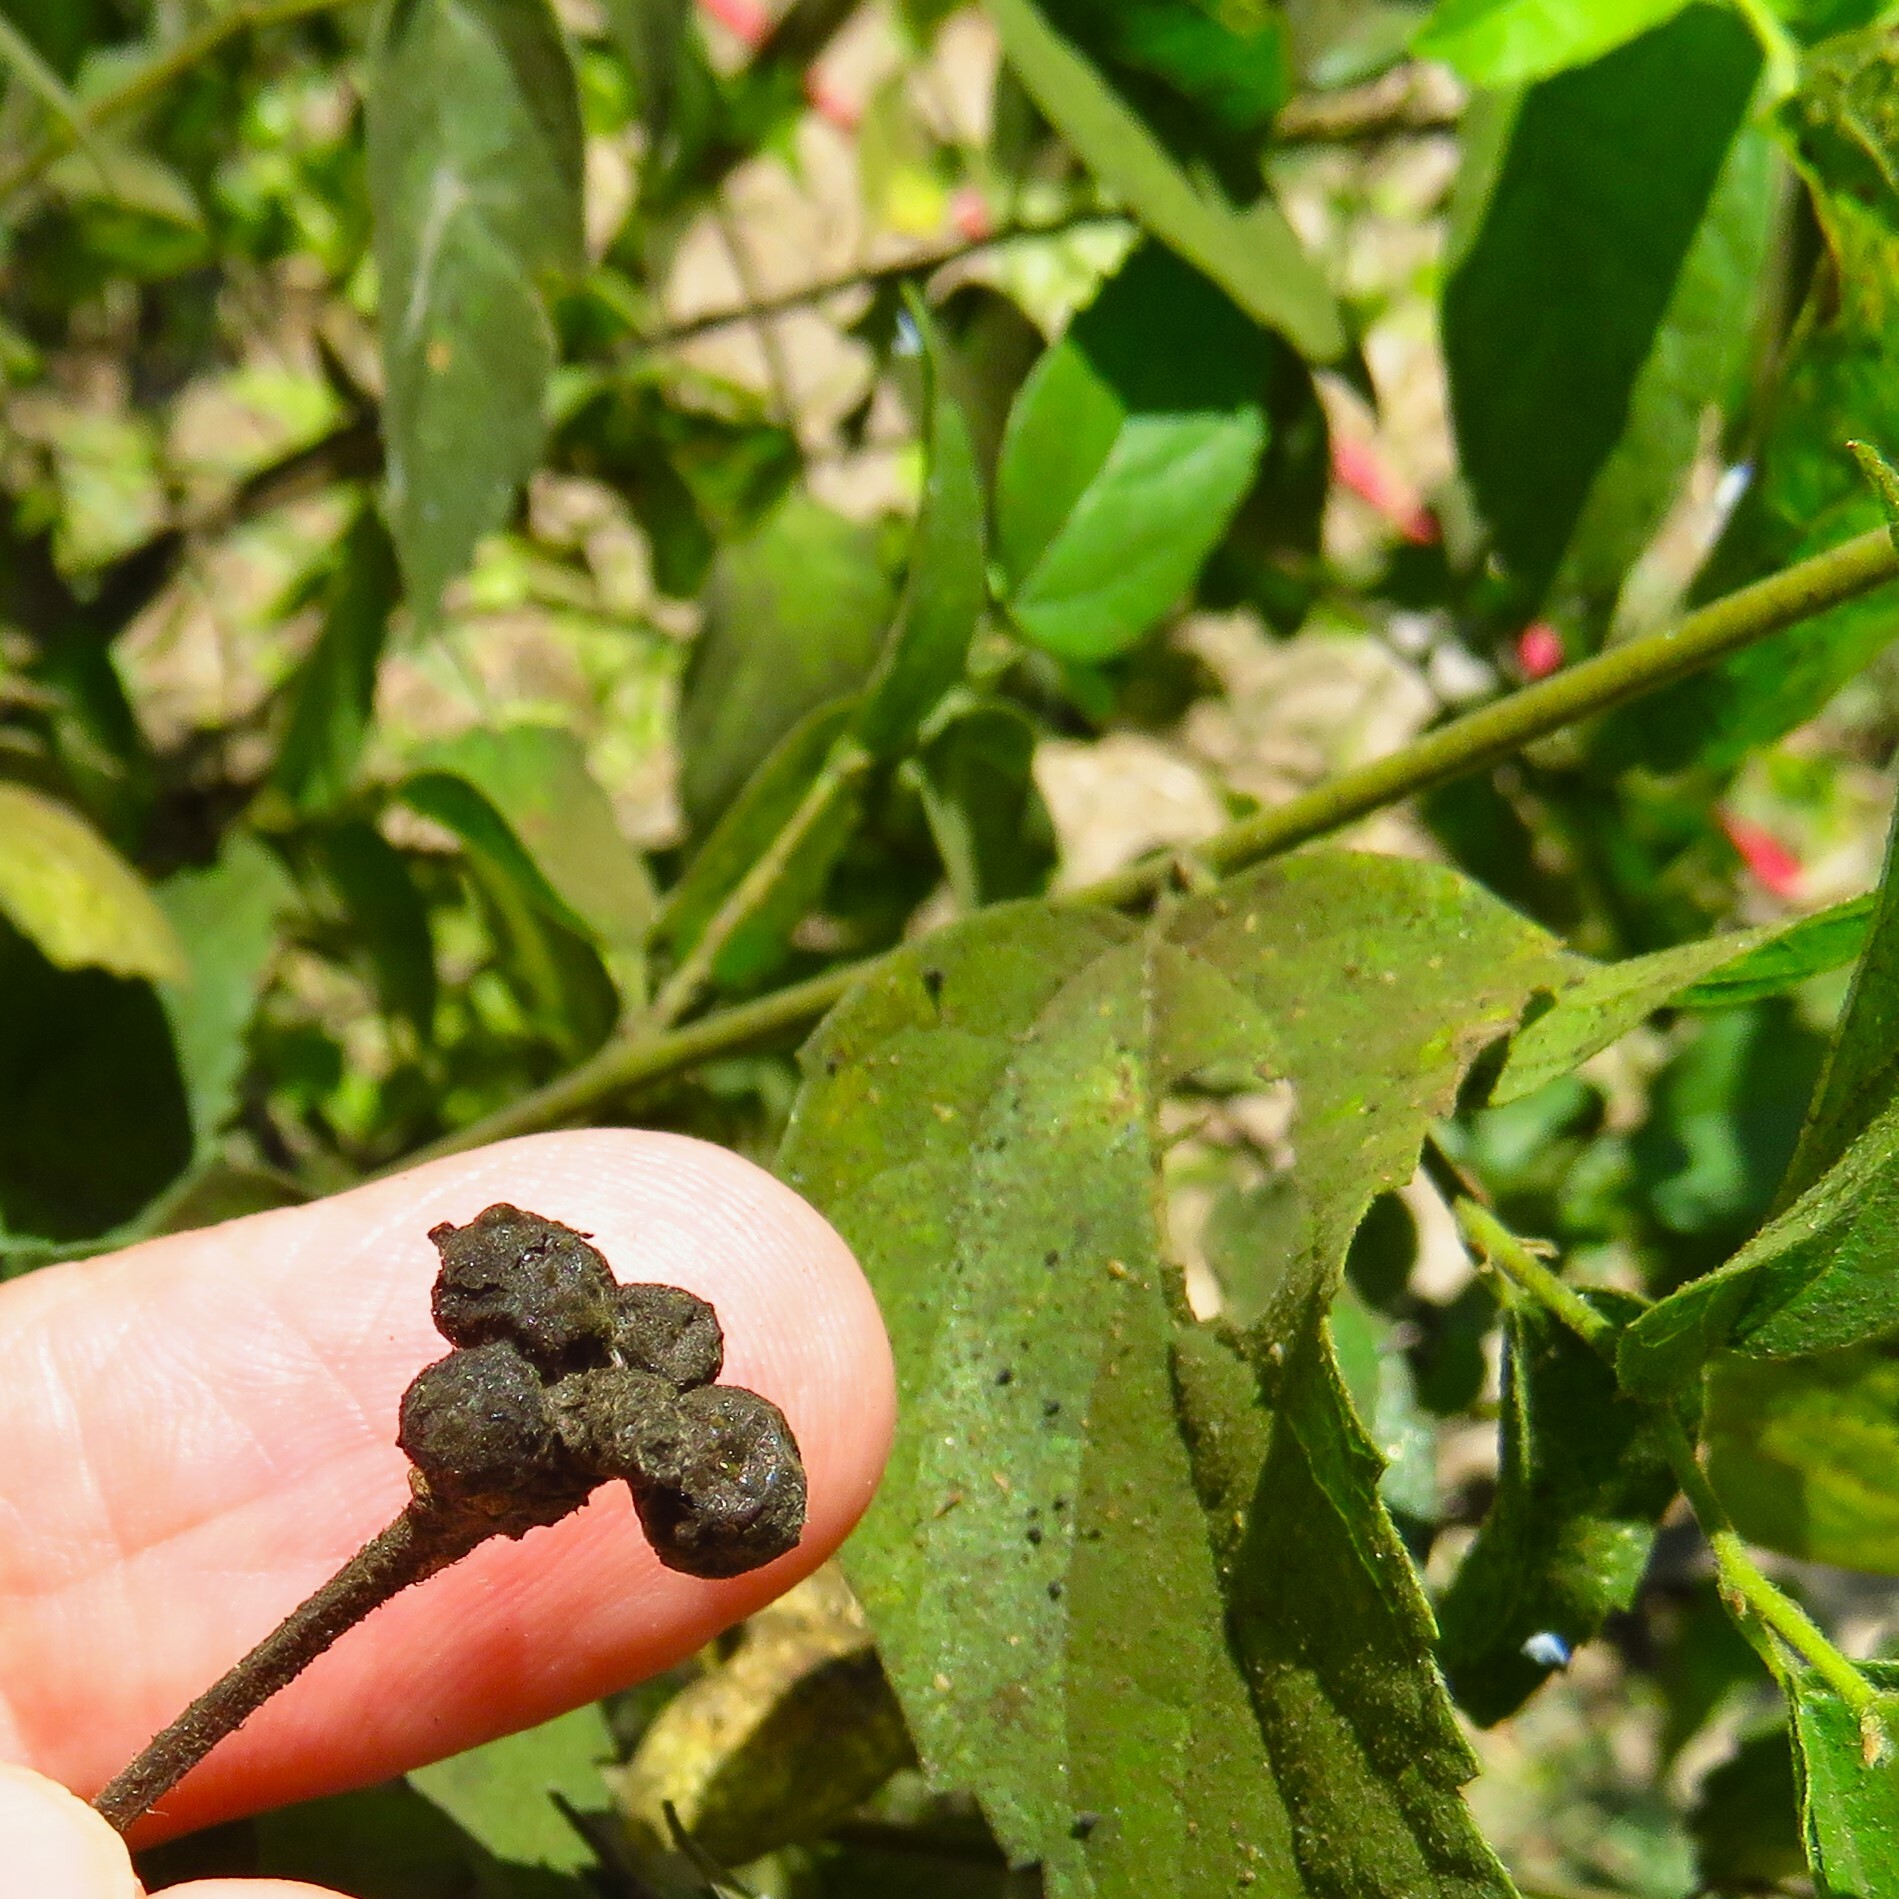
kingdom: Plantae
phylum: Tracheophyta
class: Magnoliopsida
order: Rosales
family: Cannabaceae
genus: Celtis
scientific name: Celtis laevigata
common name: Sugarberry
